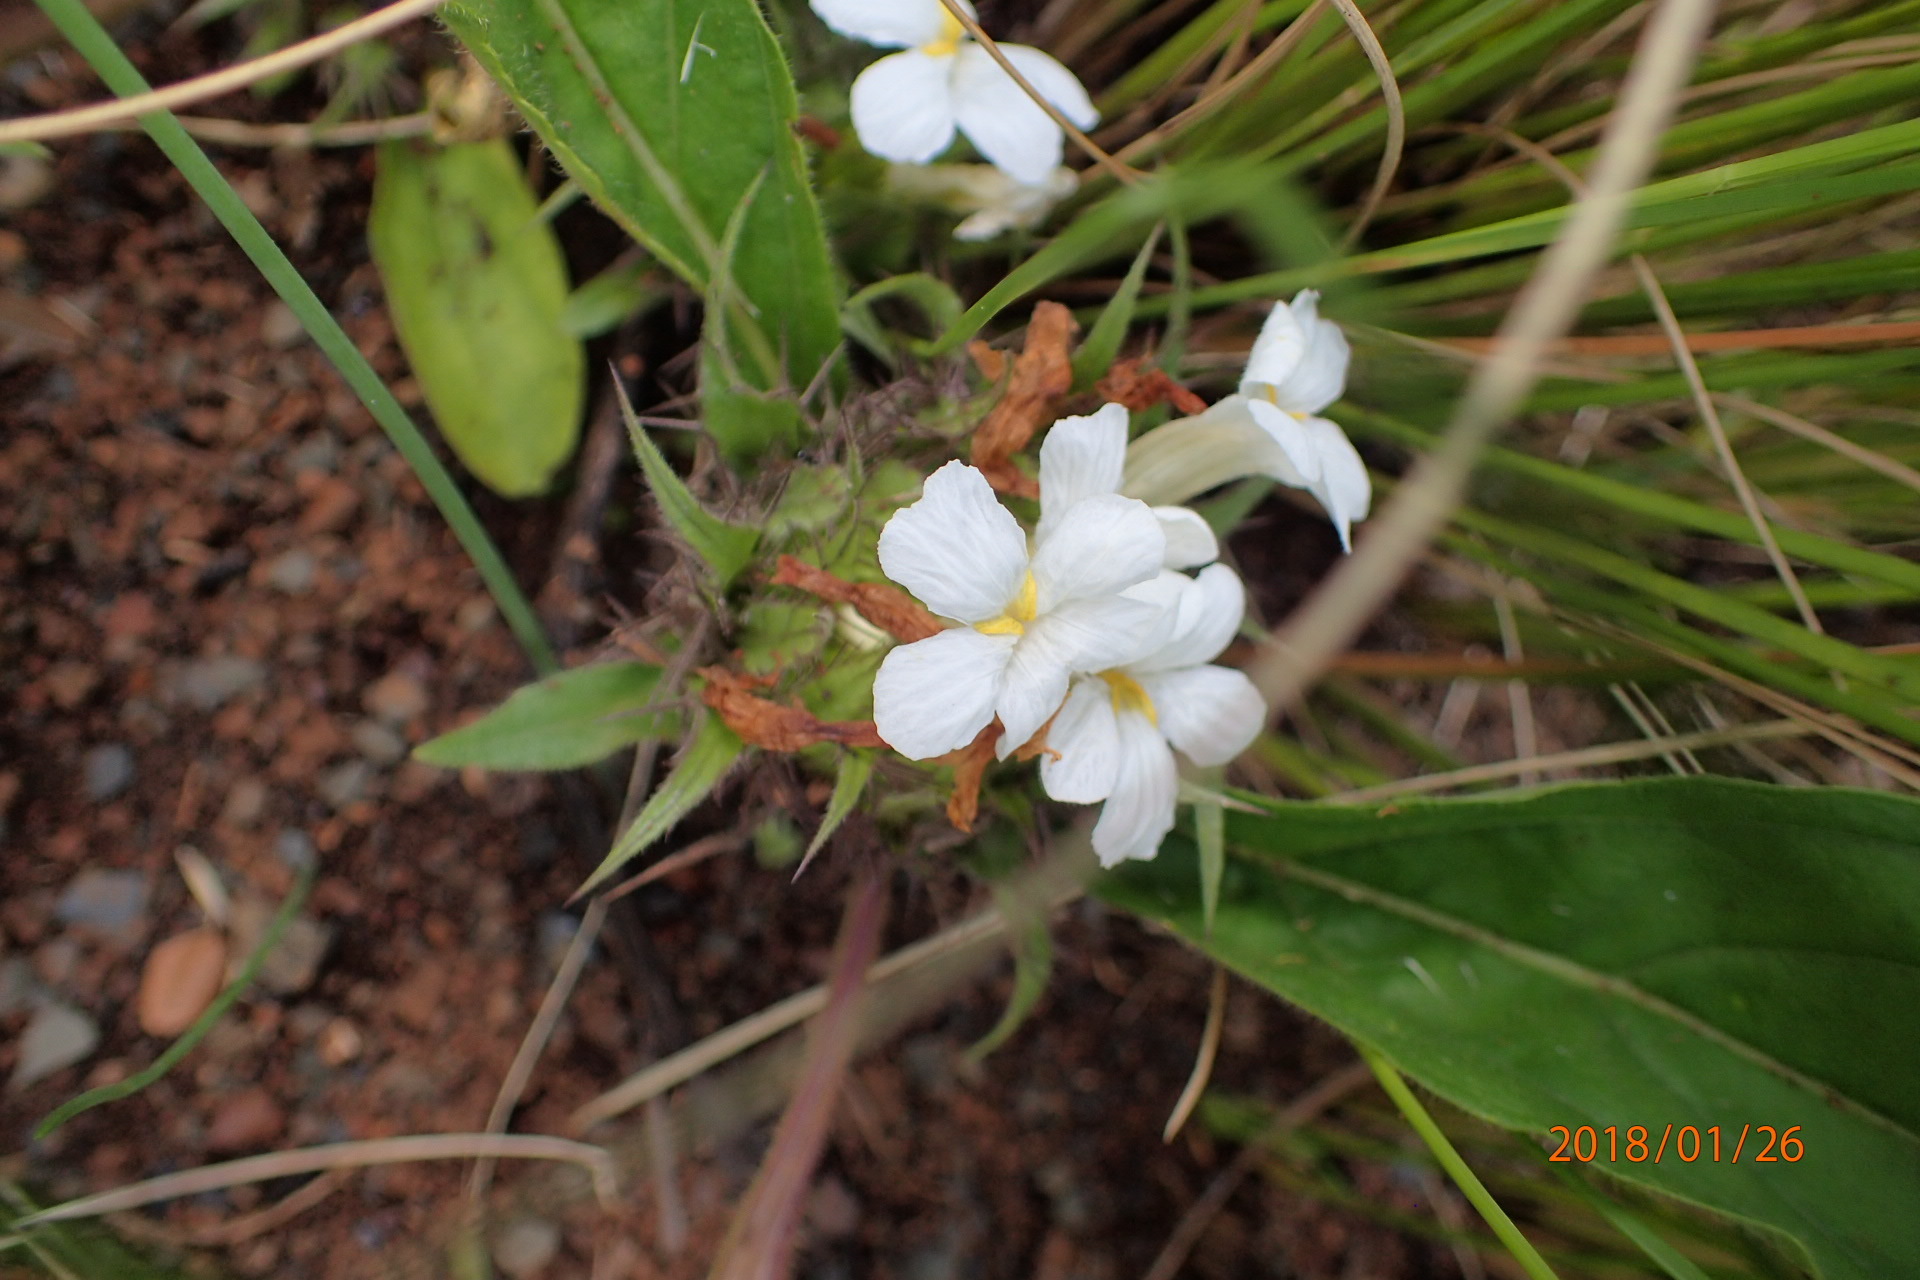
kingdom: Plantae
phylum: Tracheophyta
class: Magnoliopsida
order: Lamiales
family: Acanthaceae
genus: Crabbea
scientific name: Crabbea cirsioides
